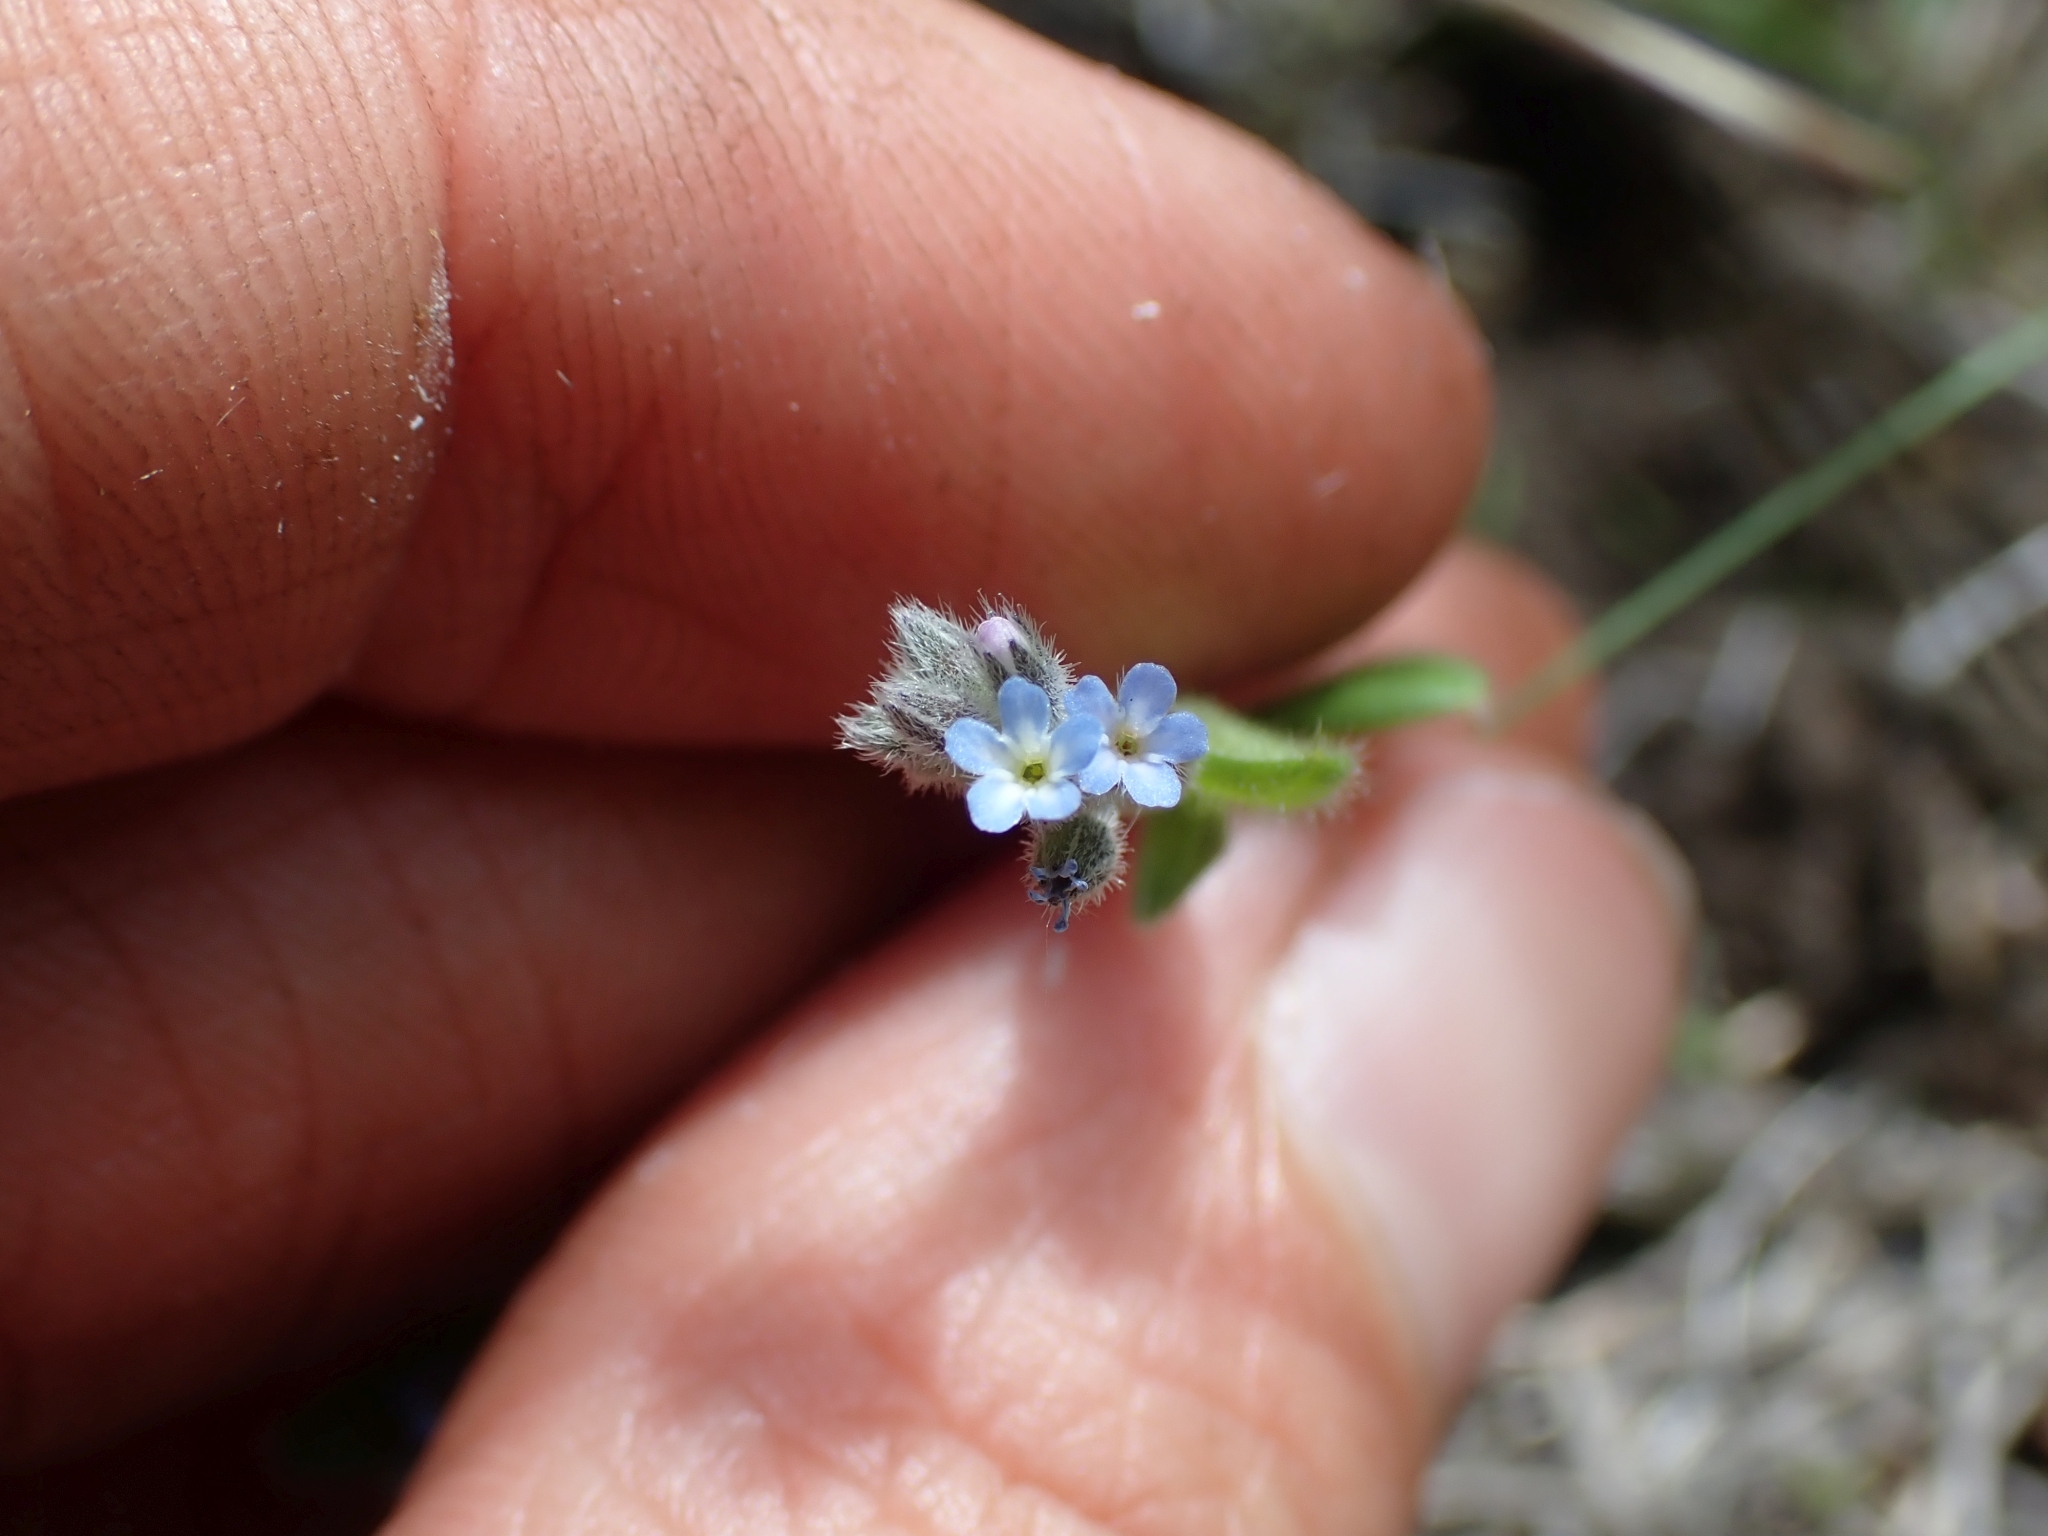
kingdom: Plantae
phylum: Tracheophyta
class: Magnoliopsida
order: Boraginales
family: Boraginaceae
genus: Myosotis
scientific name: Myosotis stricta
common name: Strict forget-me-not
